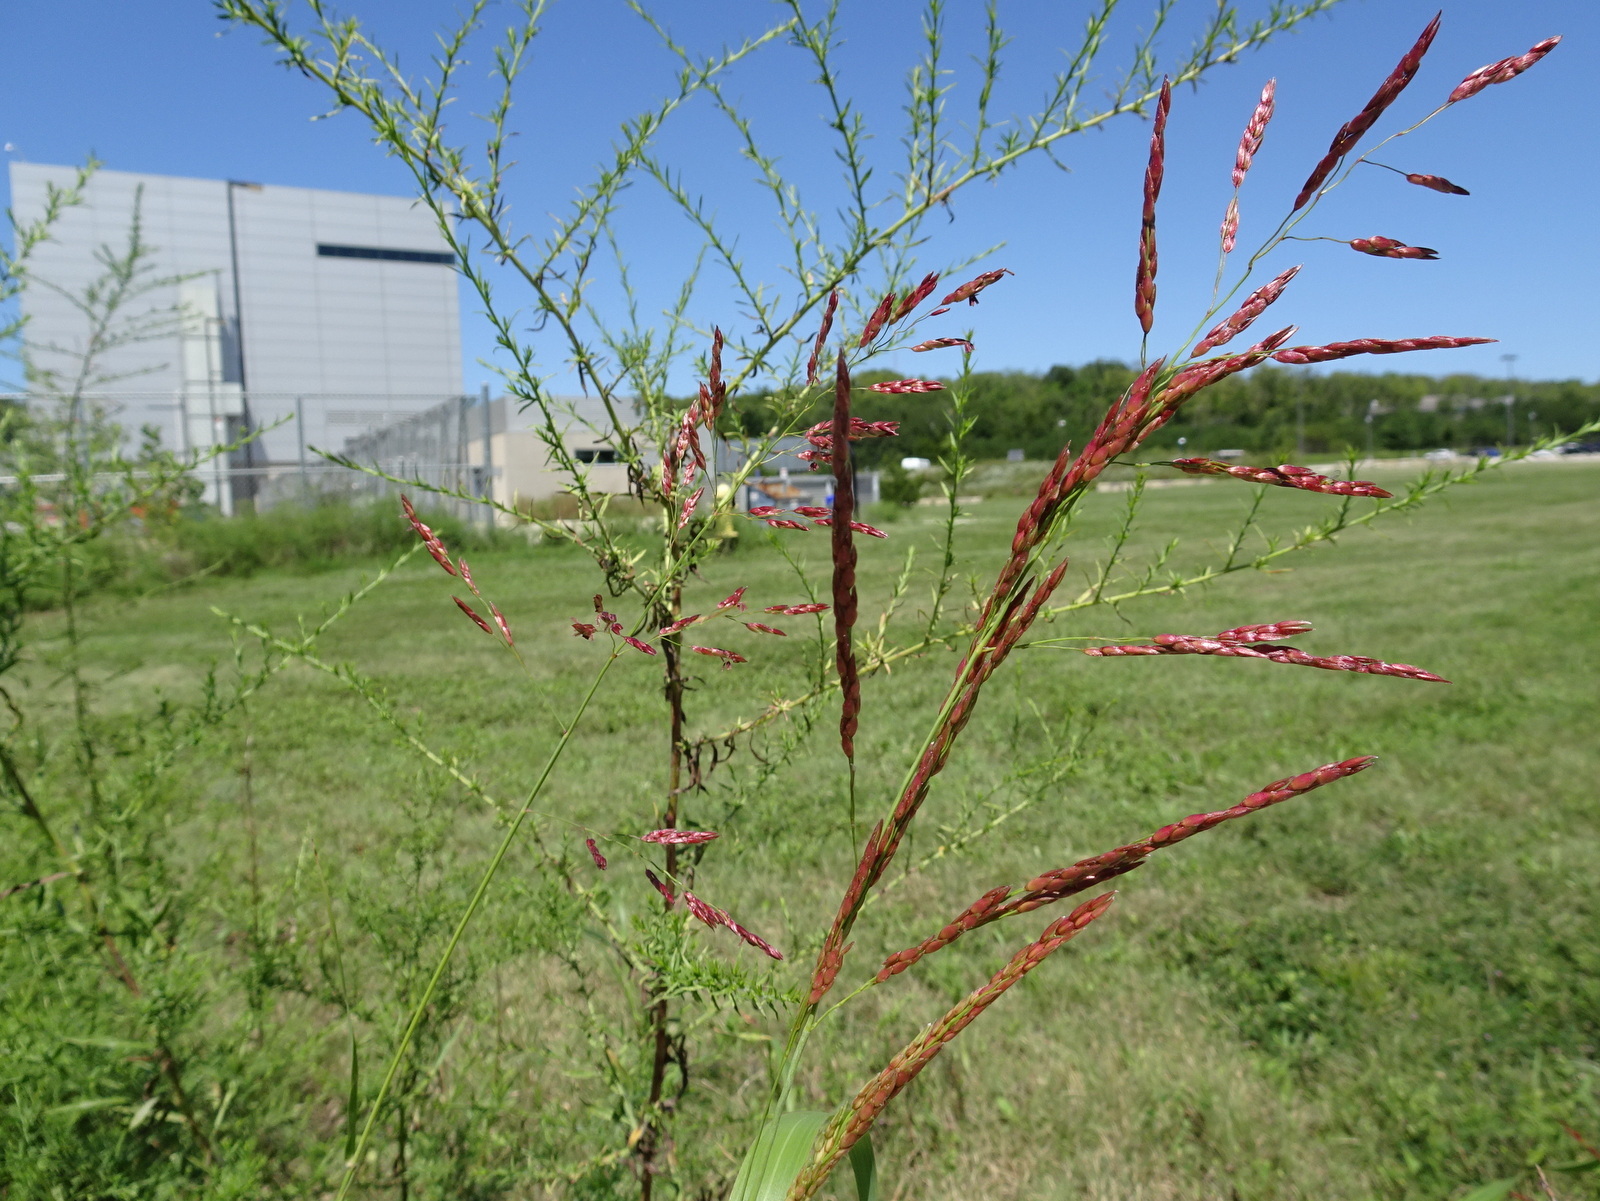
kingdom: Plantae
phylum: Tracheophyta
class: Liliopsida
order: Poales
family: Poaceae
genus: Sorghum
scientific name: Sorghum halepense
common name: Johnson-grass
